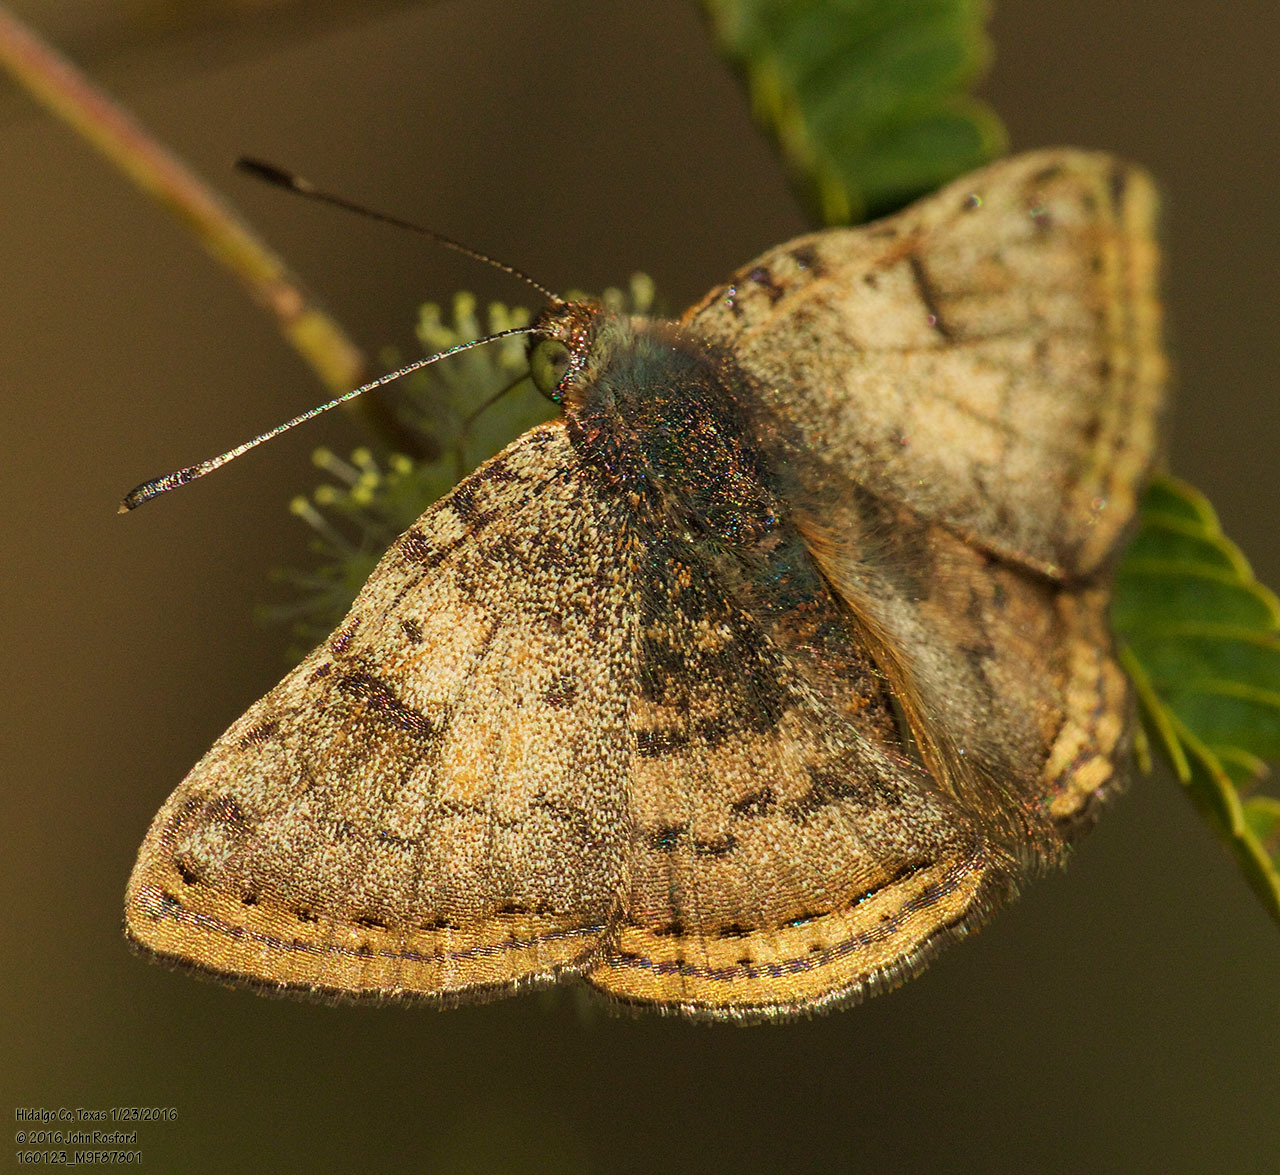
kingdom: Animalia
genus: Caria
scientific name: Caria ino
